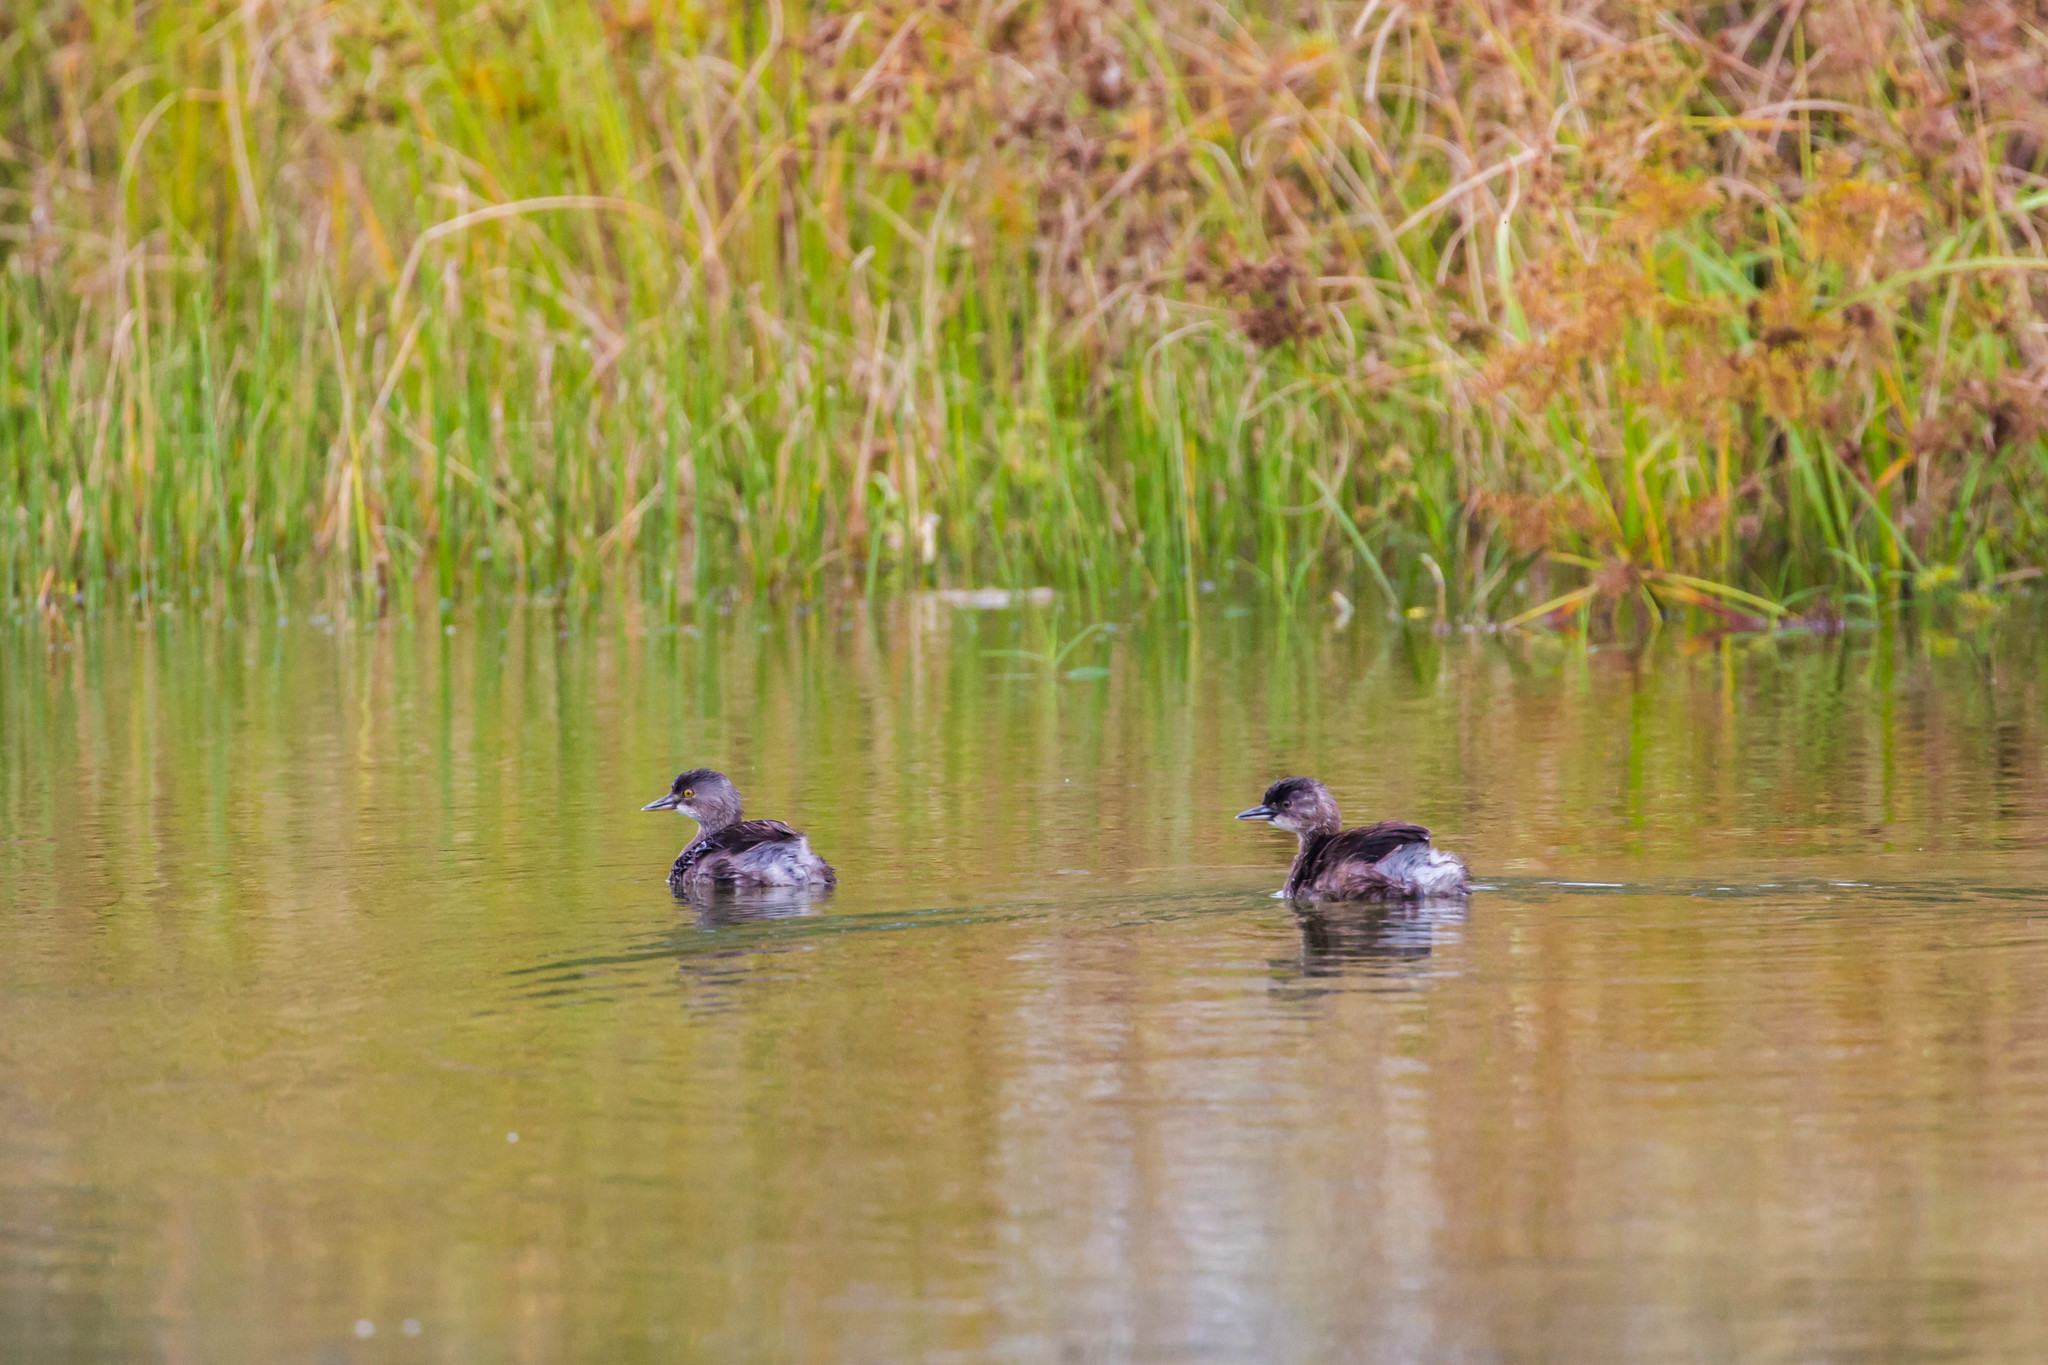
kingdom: Animalia
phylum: Chordata
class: Aves
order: Podicipediformes
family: Podicipedidae
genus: Tachybaptus
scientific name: Tachybaptus dominicus
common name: Least grebe
